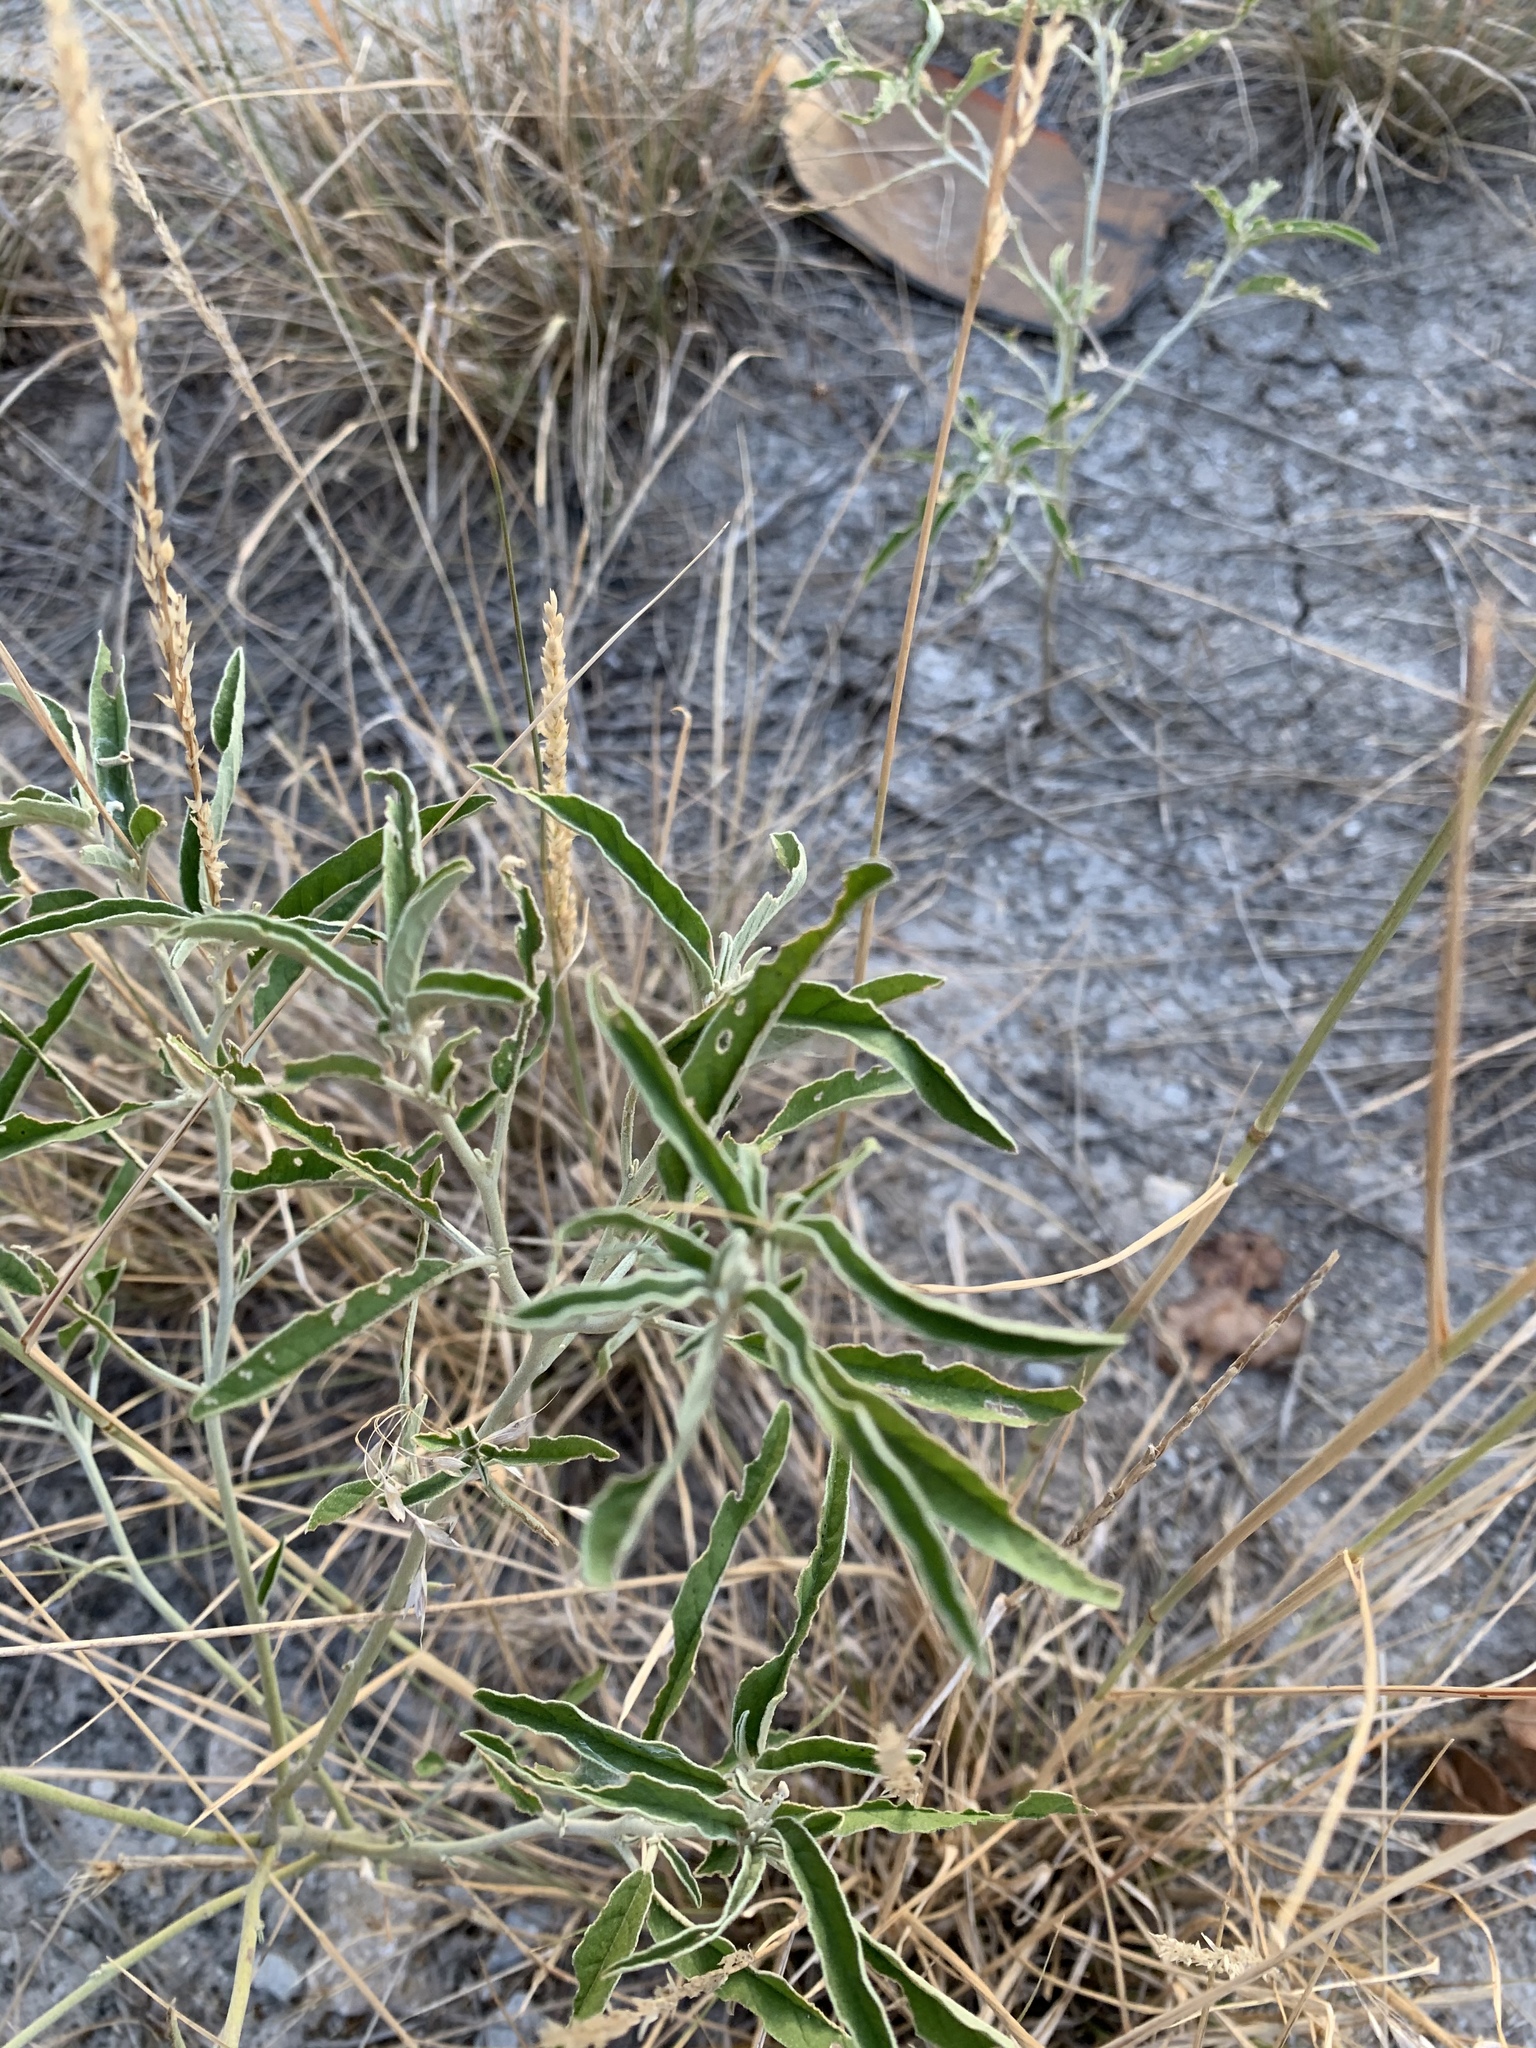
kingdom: Plantae
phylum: Tracheophyta
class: Magnoliopsida
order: Solanales
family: Solanaceae
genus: Solanum
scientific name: Solanum elaeagnifolium
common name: Silverleaf nightshade
